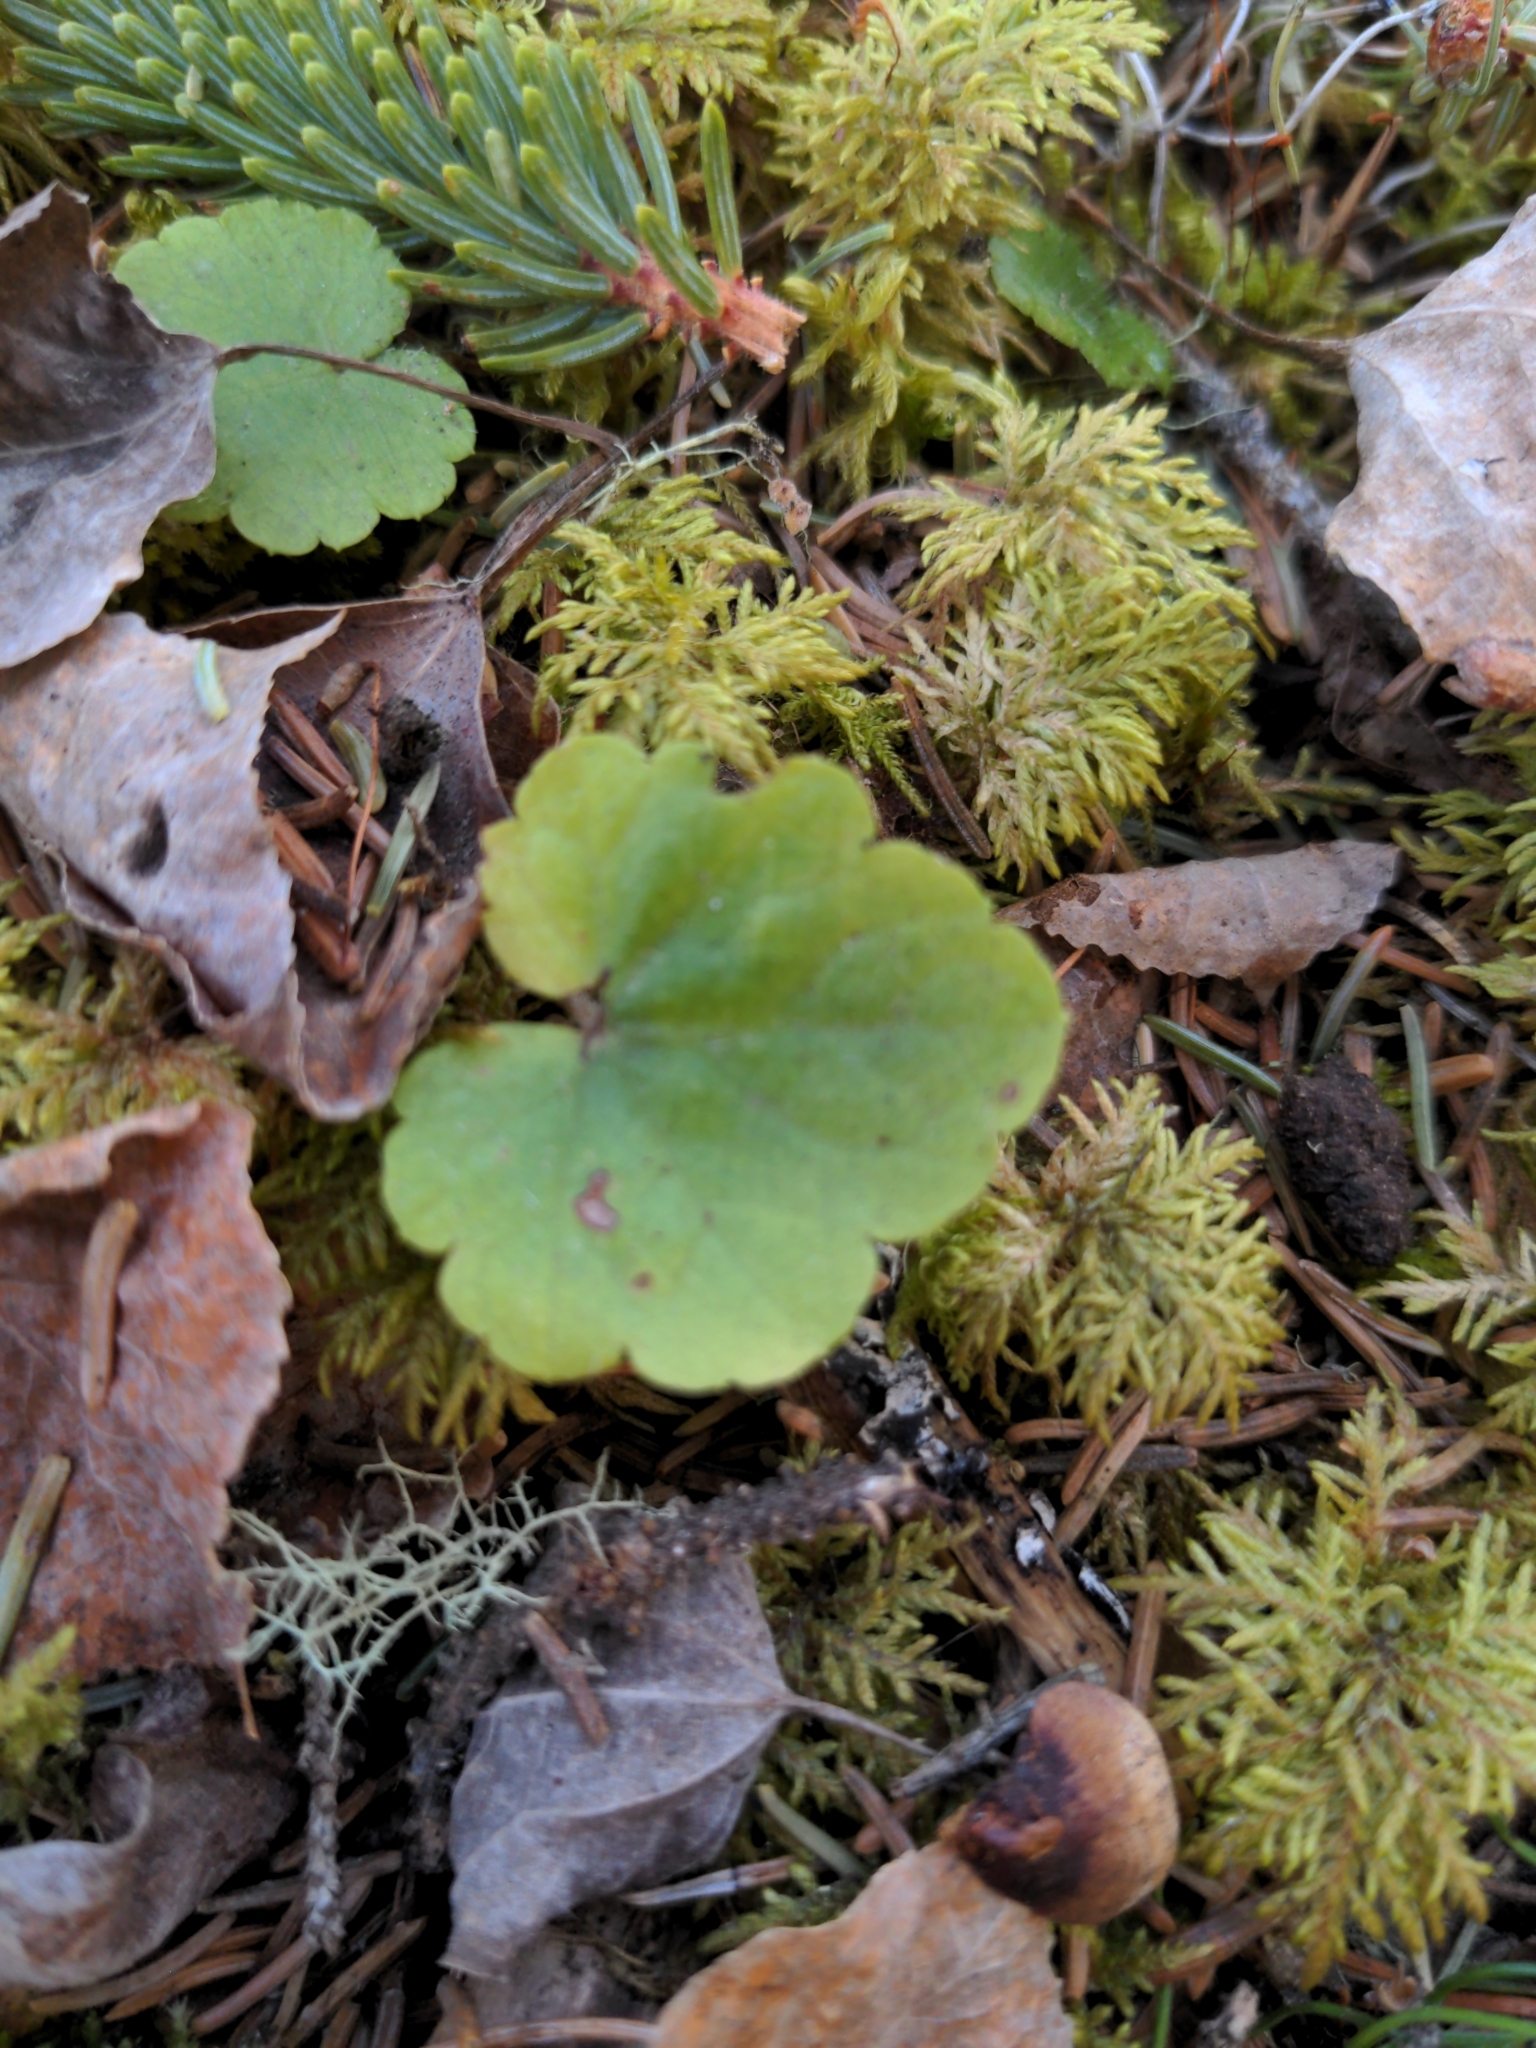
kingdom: Plantae
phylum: Tracheophyta
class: Magnoliopsida
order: Saxifragales
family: Saxifragaceae
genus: Mitella
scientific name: Mitella nuda
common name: Bare-stemmed bishop's-cap
